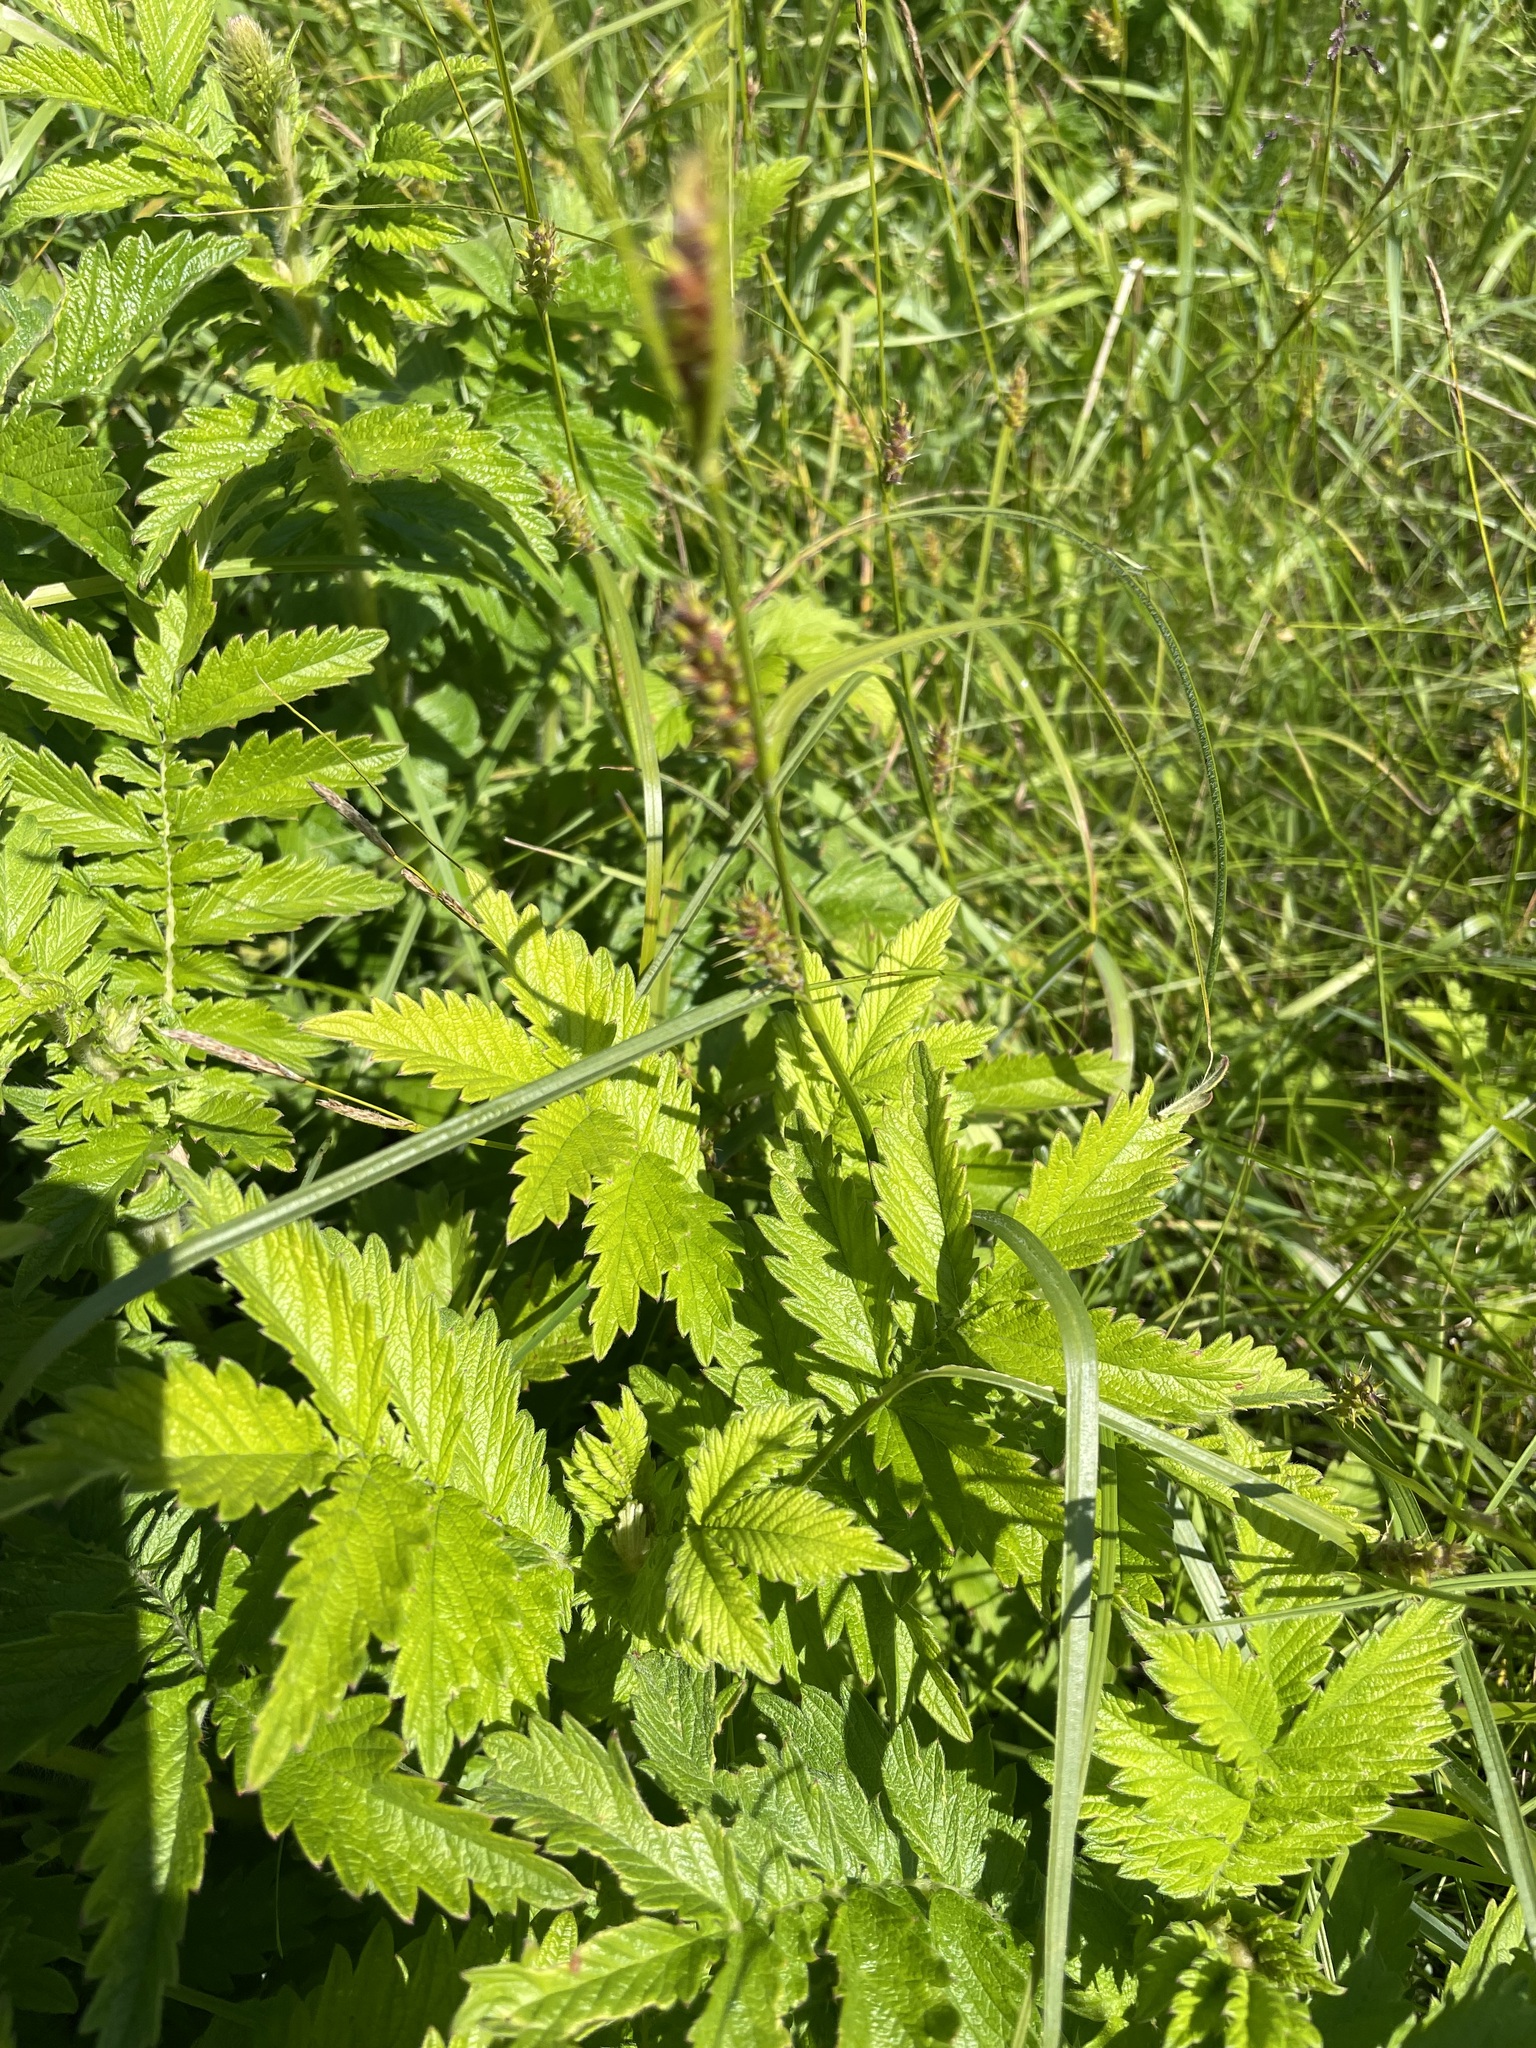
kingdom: Plantae
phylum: Tracheophyta
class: Magnoliopsida
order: Rosales
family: Rosaceae
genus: Agrimonia
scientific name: Agrimonia eupatoria
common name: Agrimony
